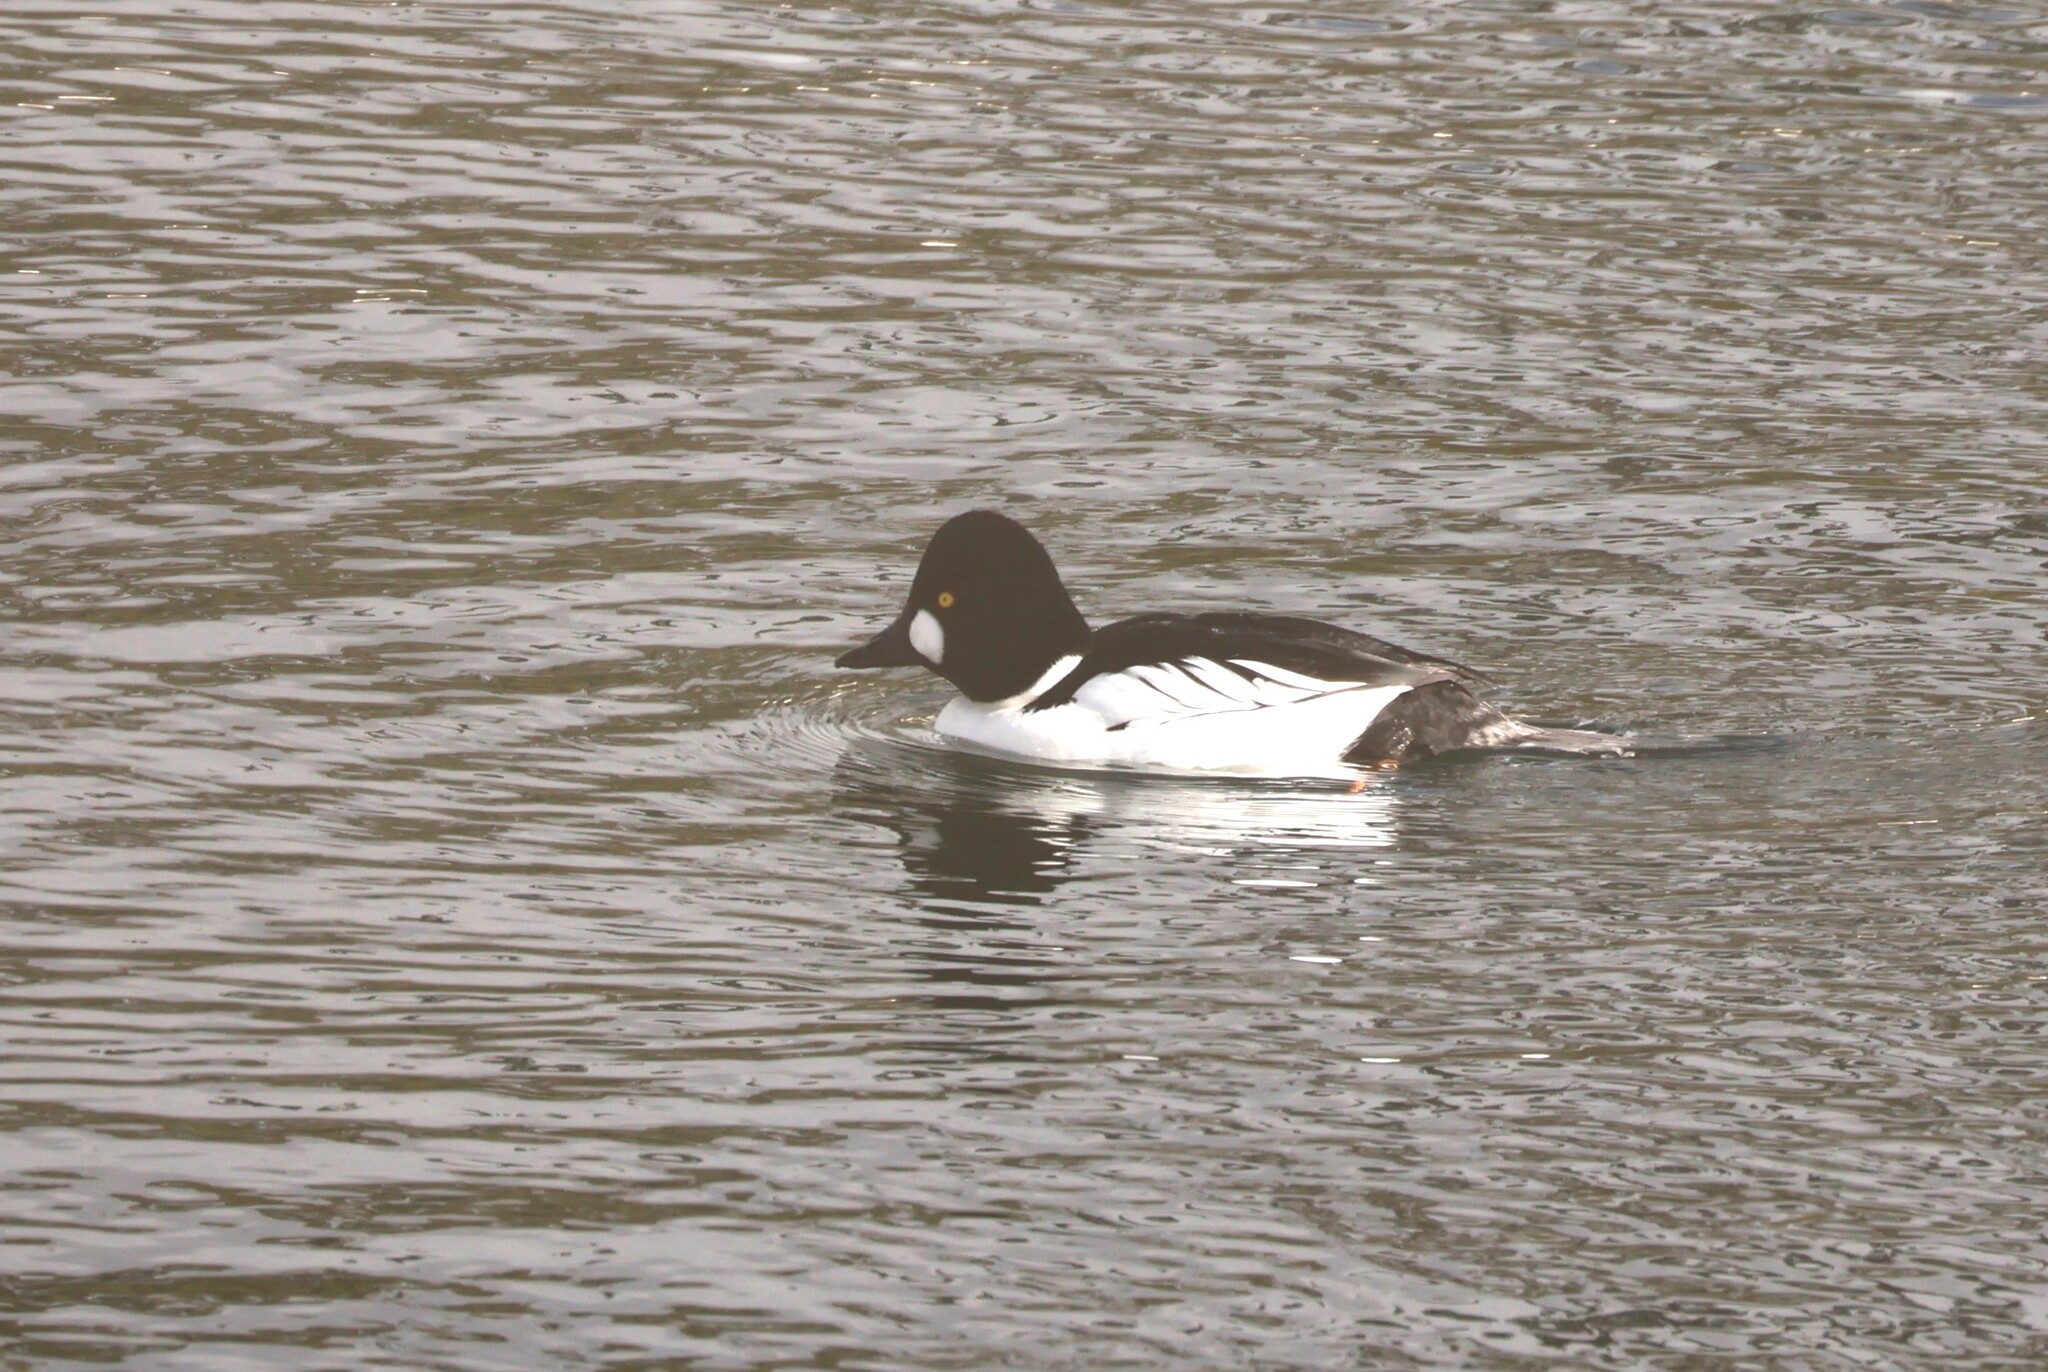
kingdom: Animalia
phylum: Chordata
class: Aves
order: Anseriformes
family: Anatidae
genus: Bucephala
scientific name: Bucephala clangula
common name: Common goldeneye
